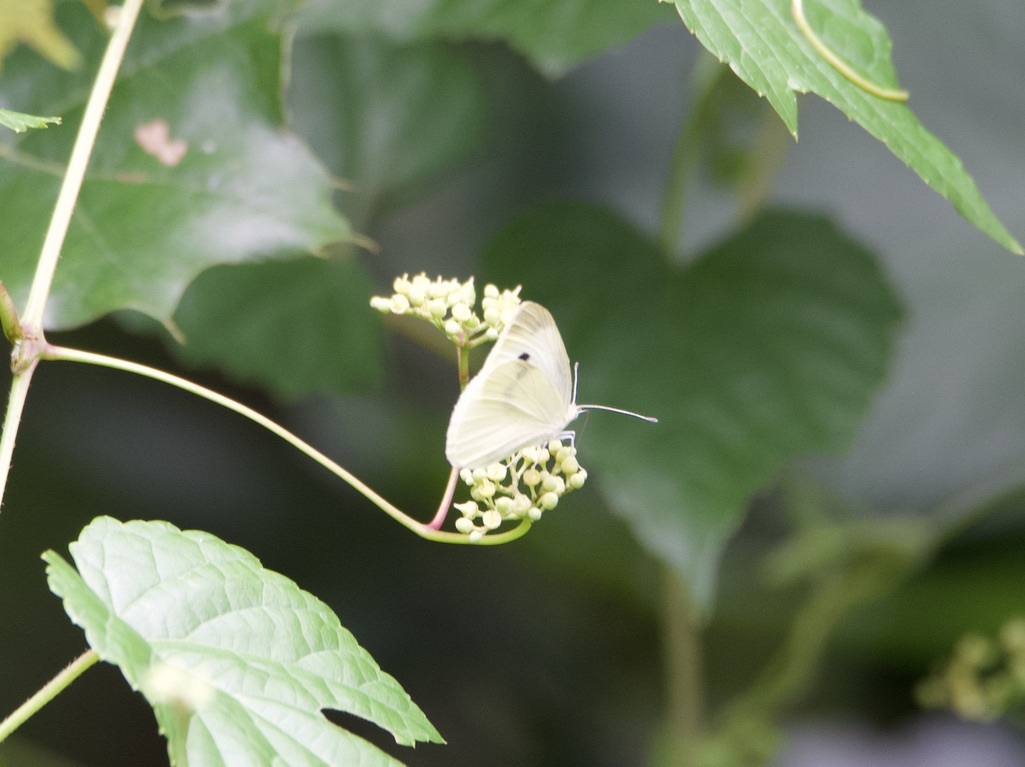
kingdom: Animalia
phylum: Arthropoda
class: Insecta
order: Lepidoptera
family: Pieridae
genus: Pieris
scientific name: Pieris rapae
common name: Small white
